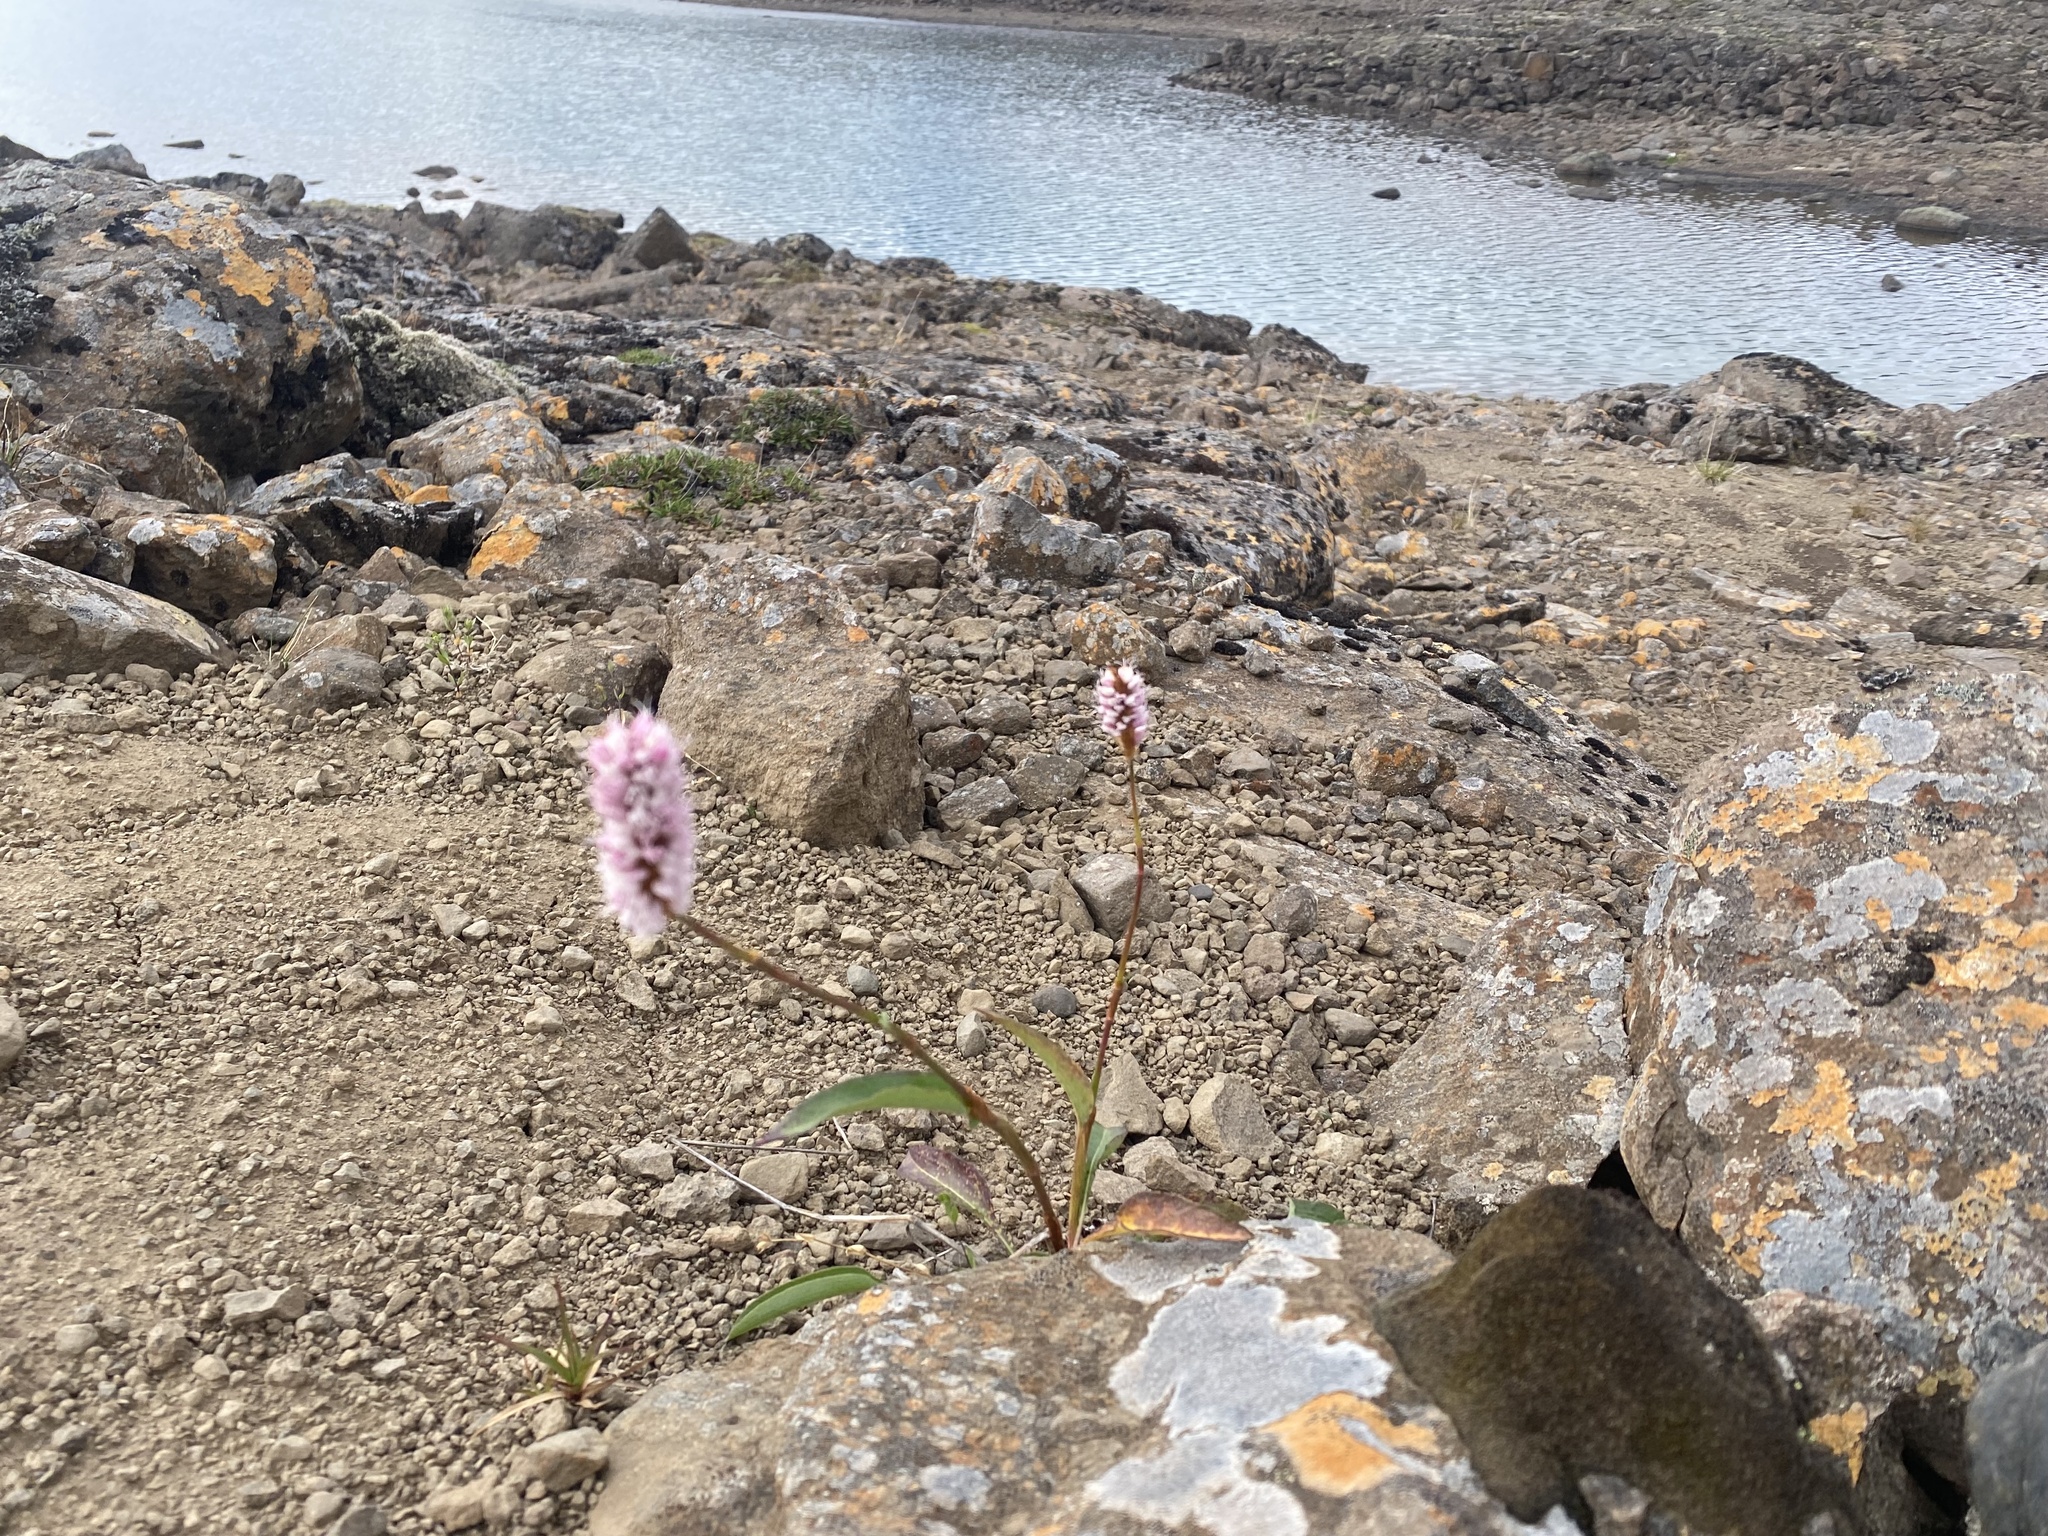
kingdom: Plantae
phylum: Tracheophyta
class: Magnoliopsida
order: Caryophyllales
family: Polygonaceae
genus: Bistorta
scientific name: Bistorta plumosa
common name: Meadow bistort
